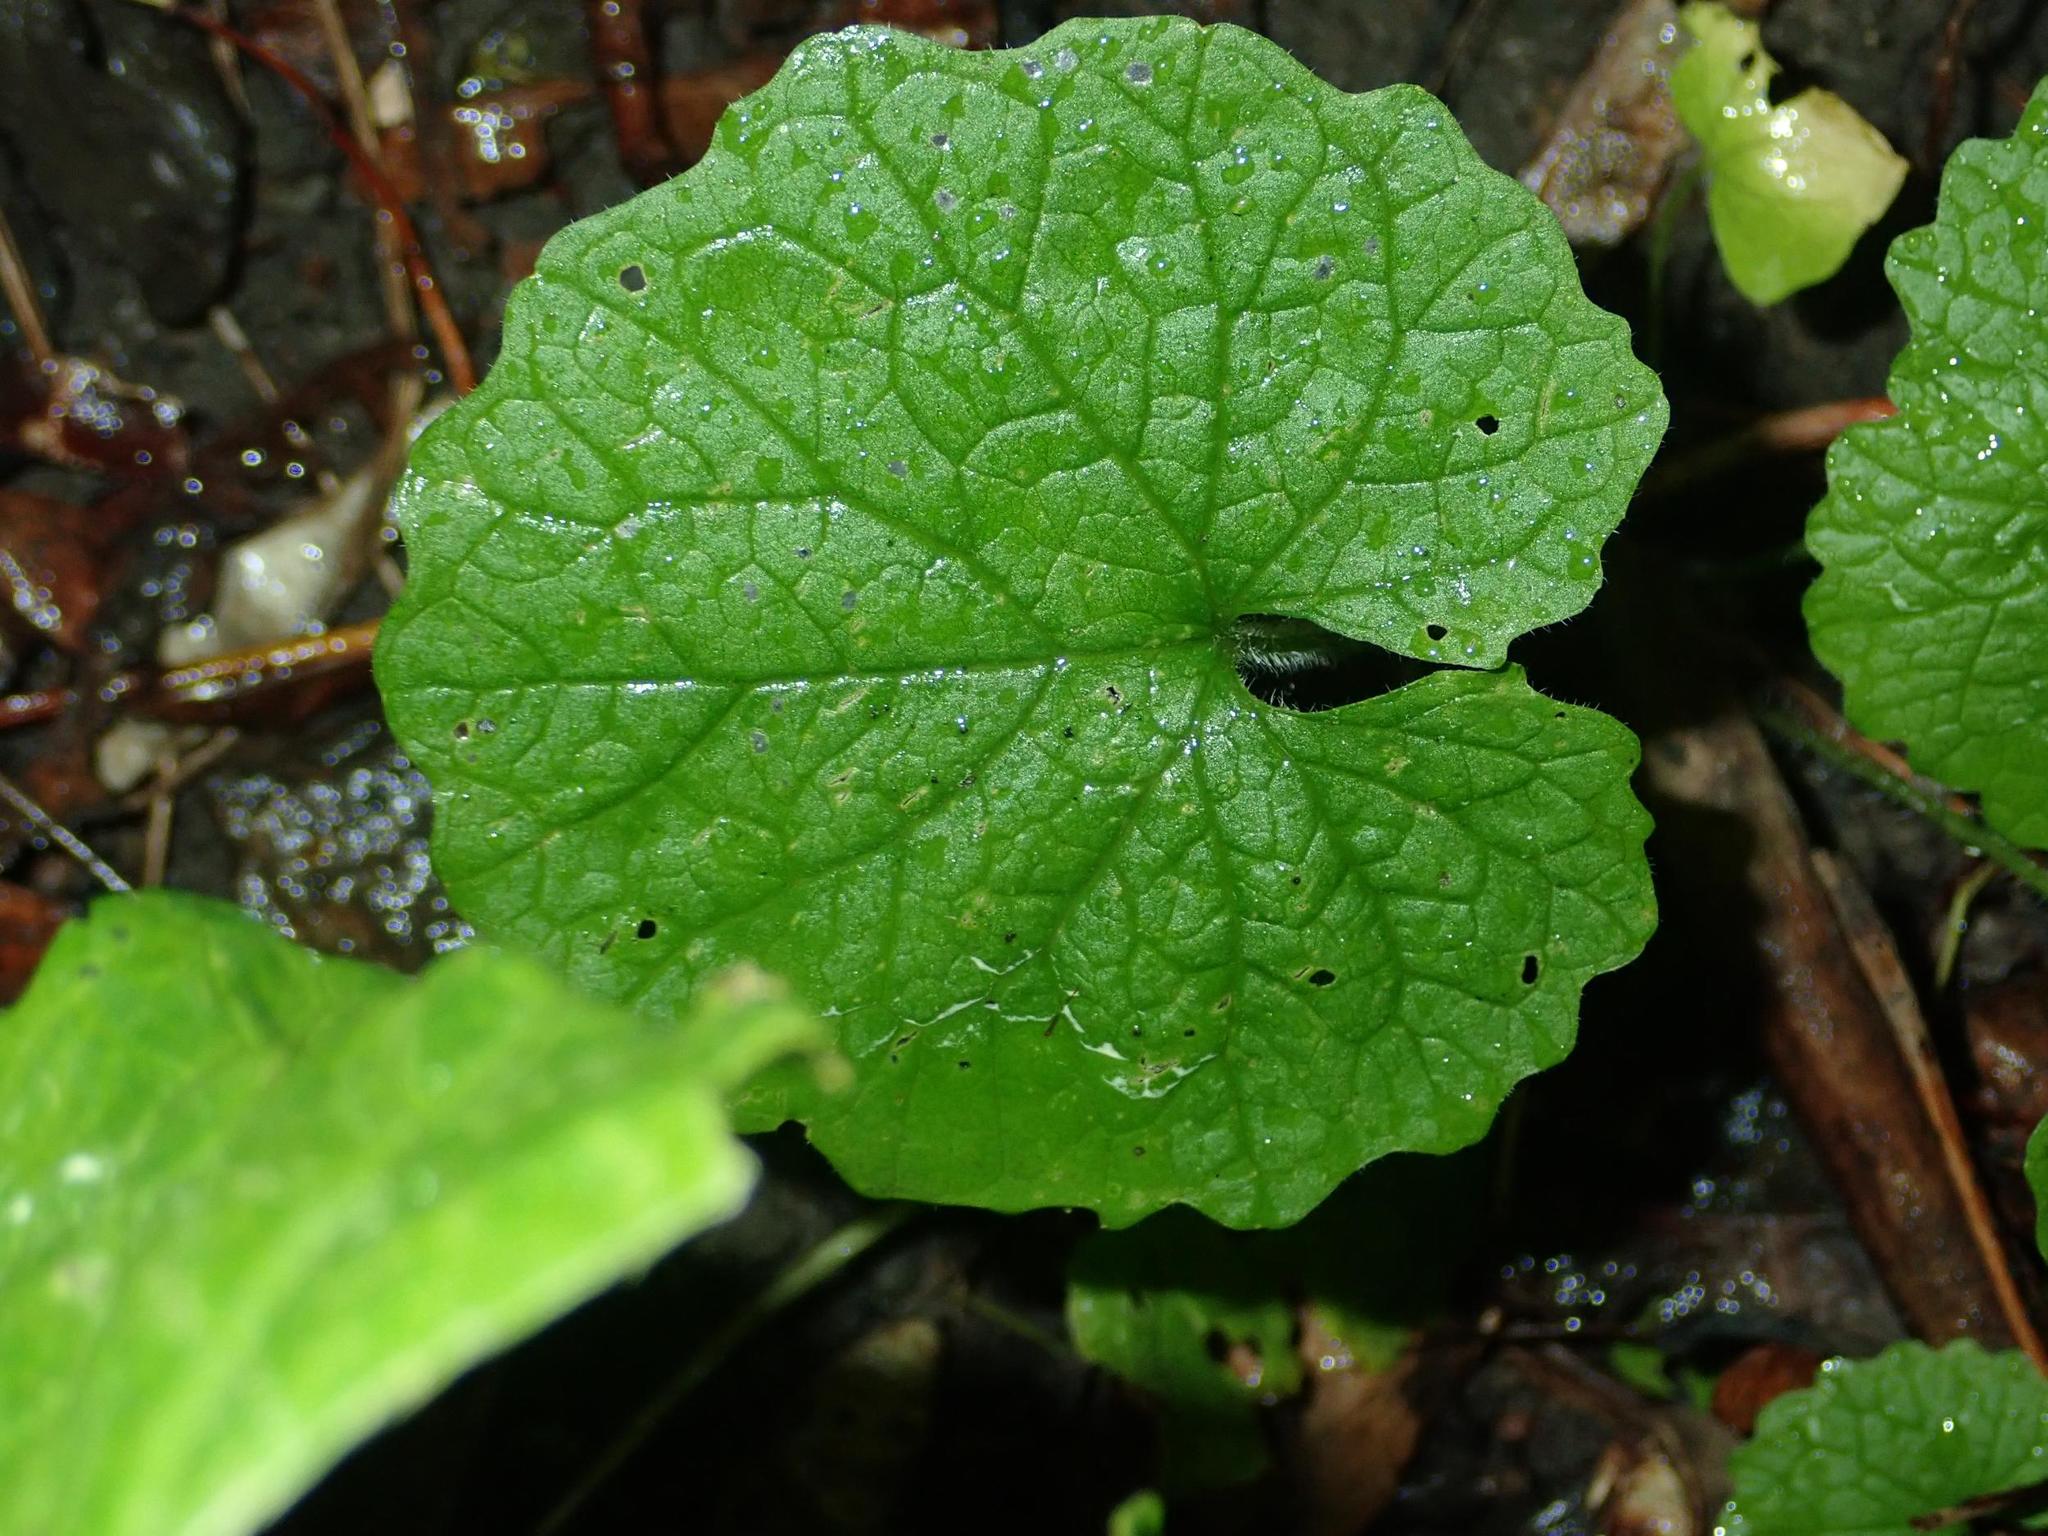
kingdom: Plantae
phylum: Tracheophyta
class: Magnoliopsida
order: Brassicales
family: Brassicaceae
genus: Alliaria
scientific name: Alliaria petiolata
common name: Garlic mustard
